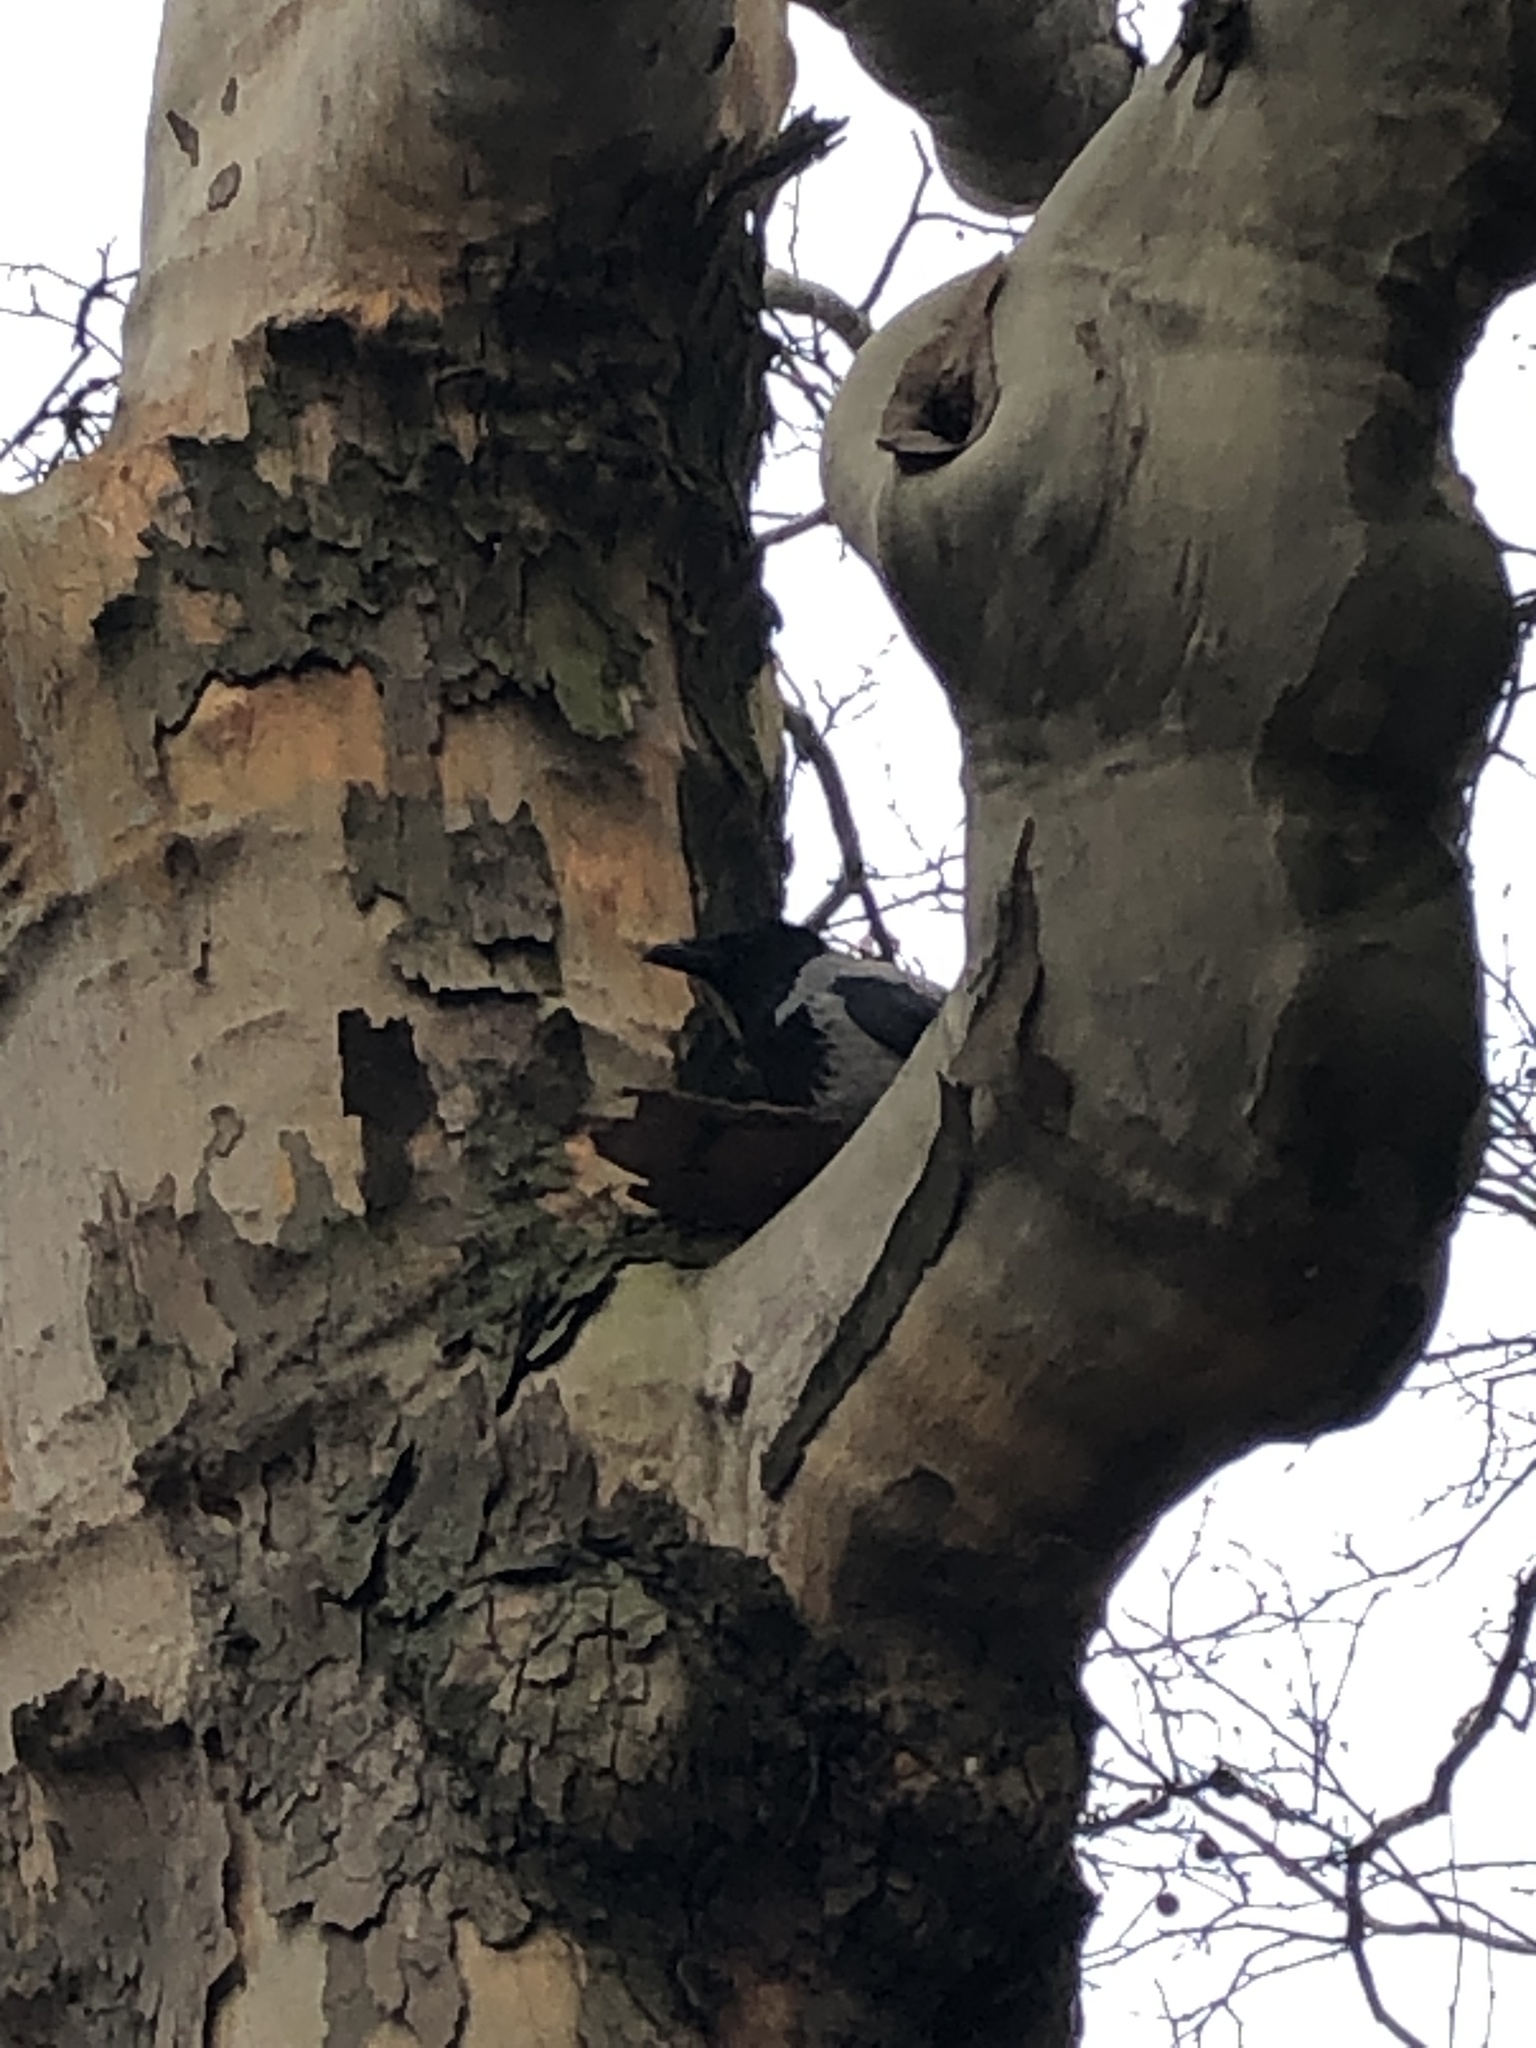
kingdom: Animalia
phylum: Chordata
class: Aves
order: Passeriformes
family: Corvidae
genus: Corvus
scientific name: Corvus cornix
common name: Hooded crow
